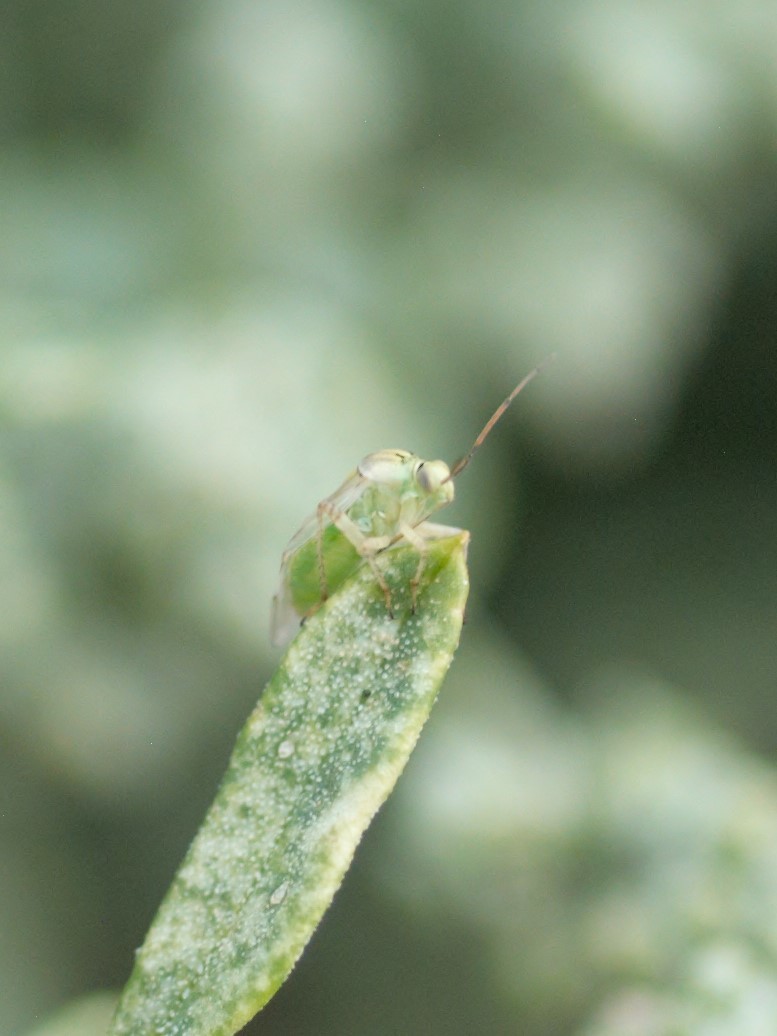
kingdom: Animalia
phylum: Arthropoda
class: Insecta
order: Hemiptera
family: Miridae
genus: Lygus
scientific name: Lygus elisus
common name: Pale legume bug
